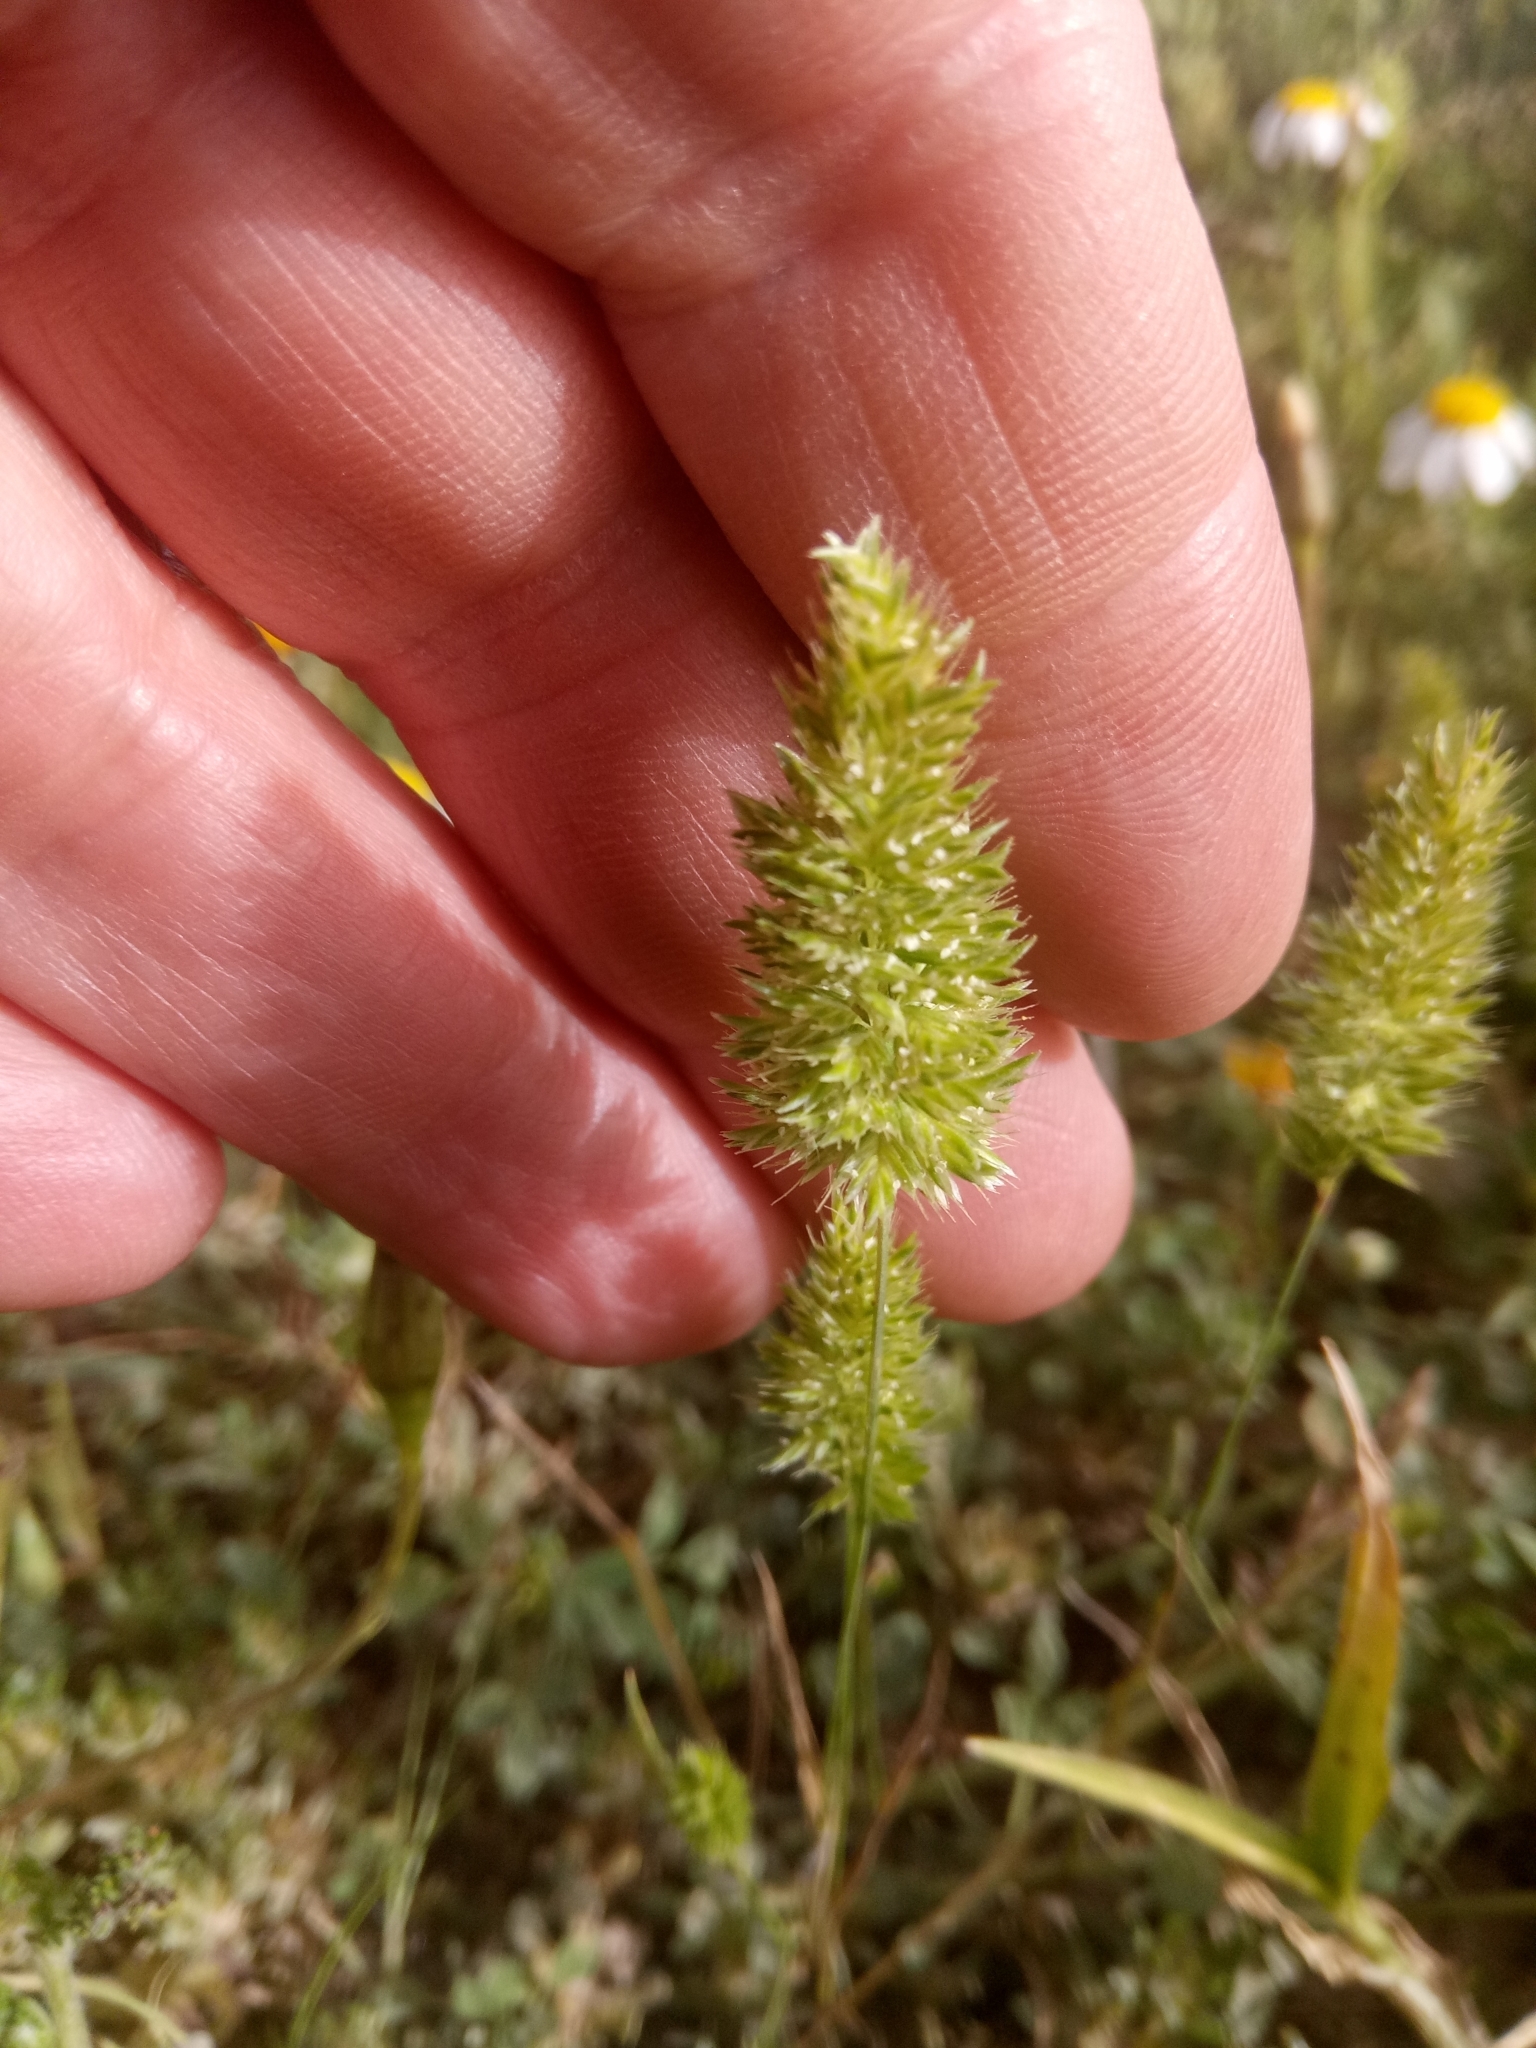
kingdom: Plantae
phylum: Tracheophyta
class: Liliopsida
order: Poales
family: Poaceae
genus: Rostraria
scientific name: Rostraria cristata
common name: Mediterranean hair-grass
